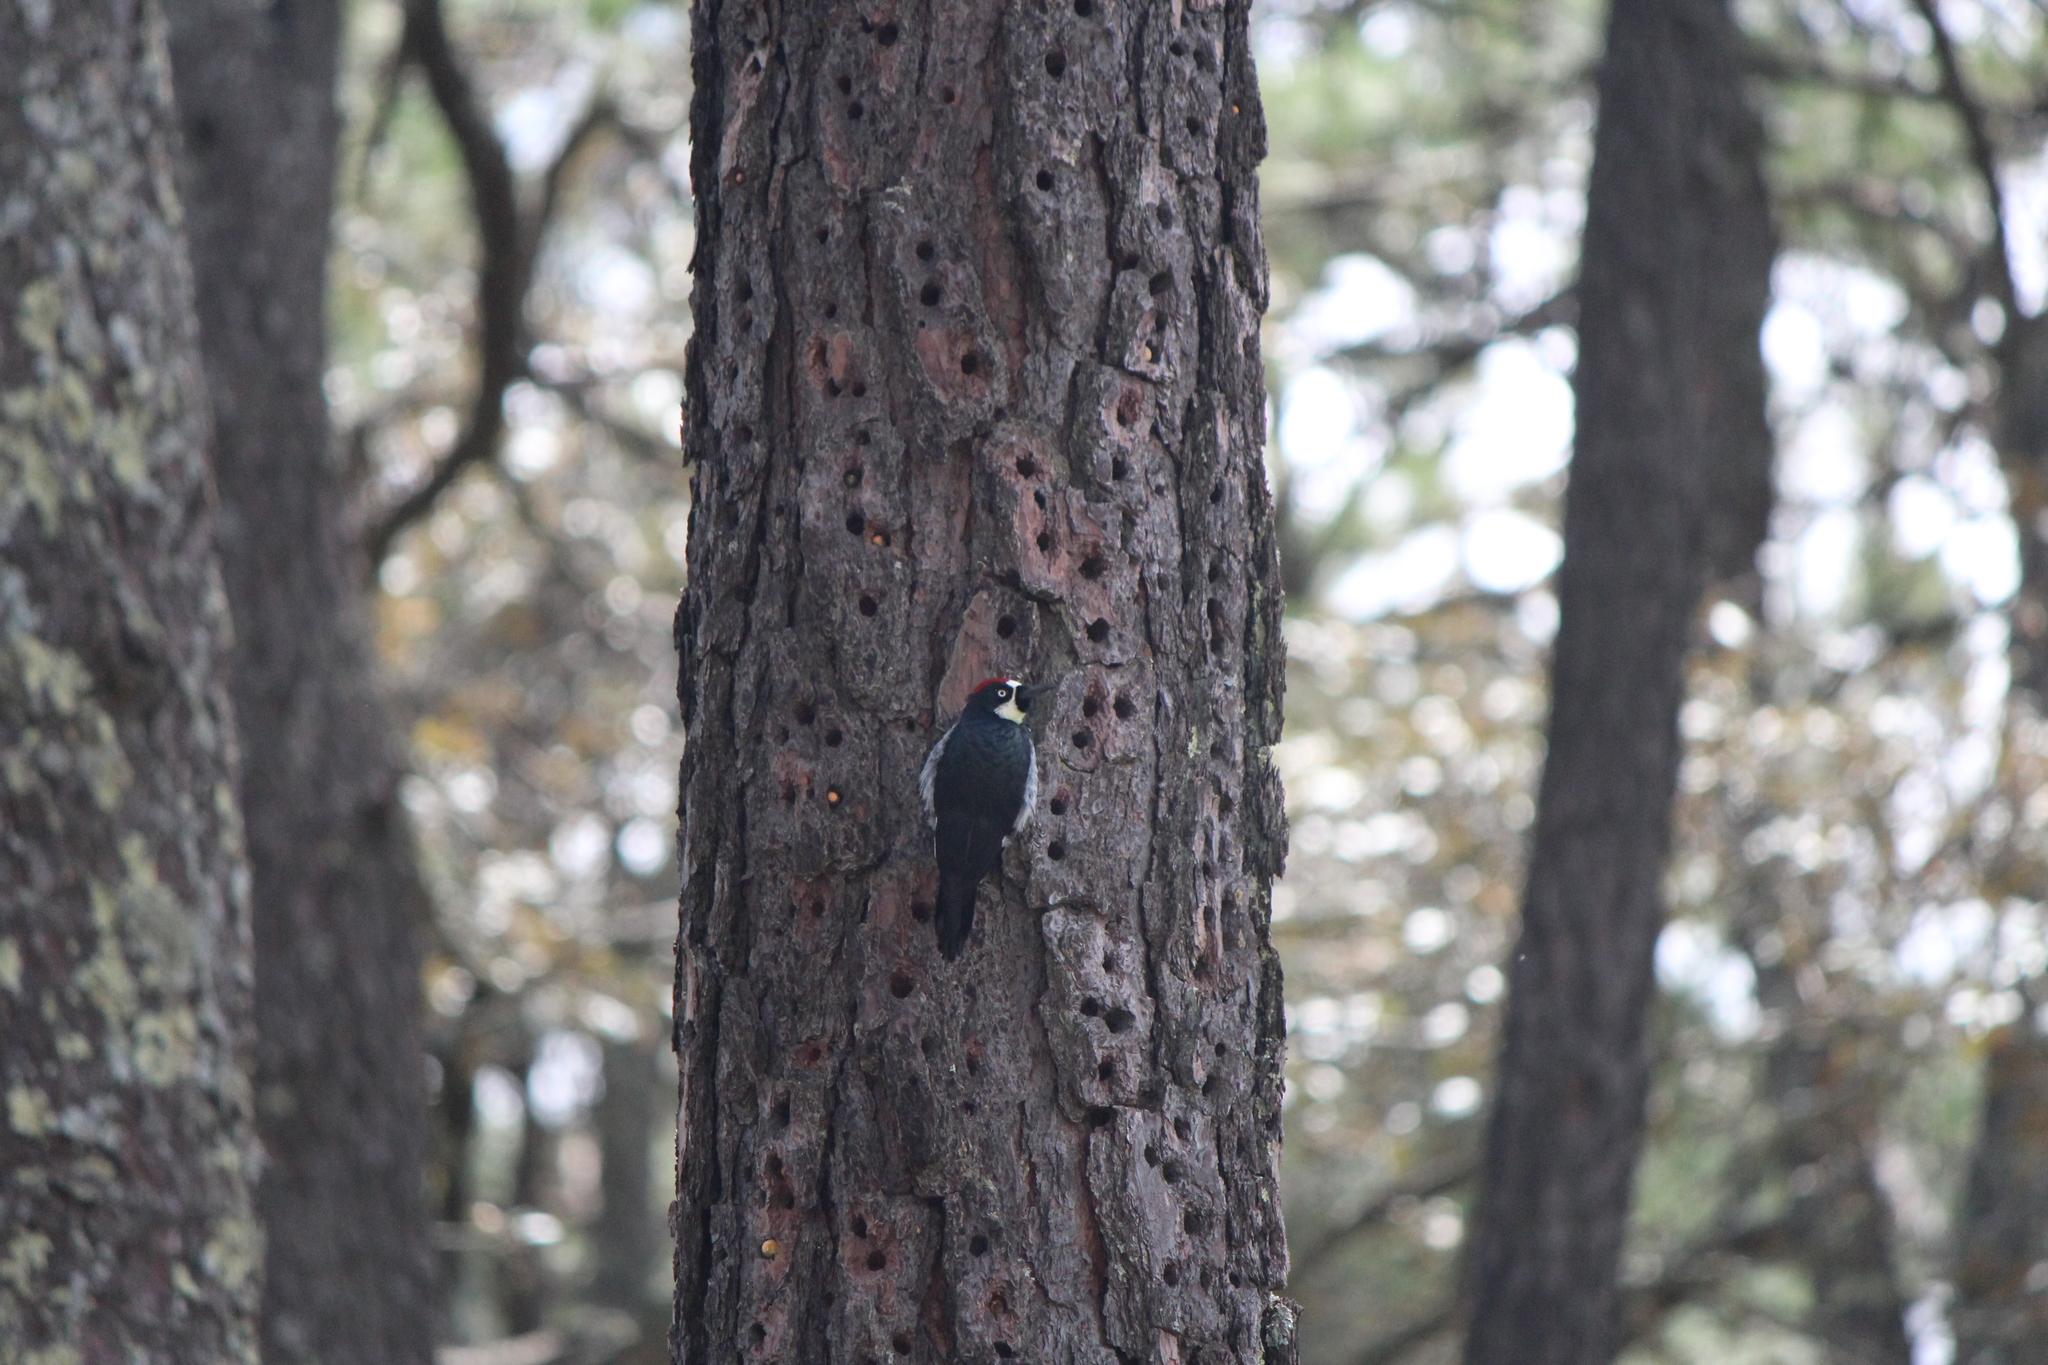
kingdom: Animalia
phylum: Chordata
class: Aves
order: Piciformes
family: Picidae
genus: Melanerpes
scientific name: Melanerpes formicivorus
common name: Acorn woodpecker
